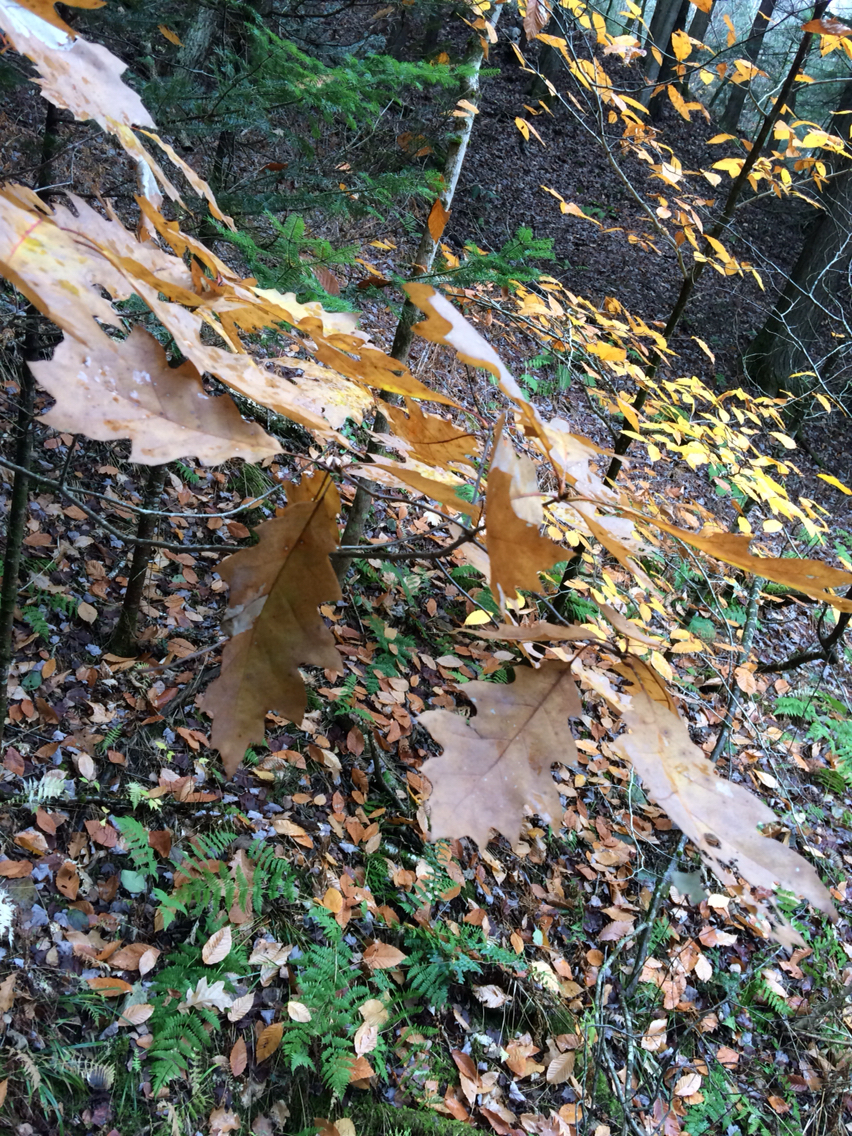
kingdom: Plantae
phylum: Tracheophyta
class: Magnoliopsida
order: Fagales
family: Fagaceae
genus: Quercus
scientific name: Quercus rubra
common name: Red oak
